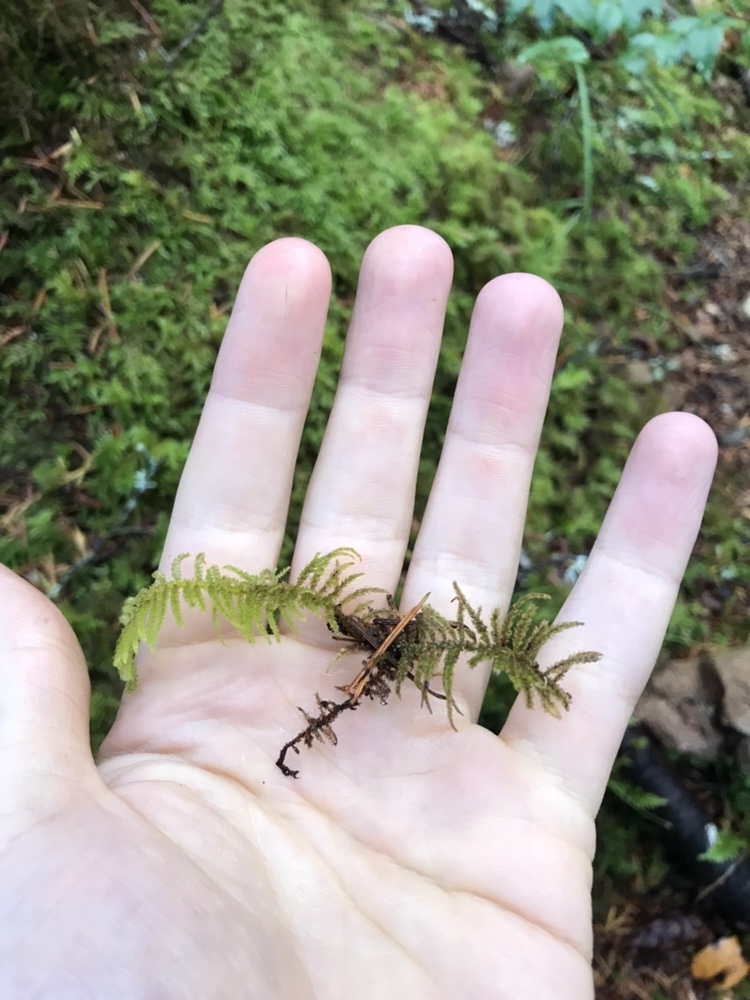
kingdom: Plantae
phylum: Bryophyta
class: Bryopsida
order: Hypnales
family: Brachytheciaceae
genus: Kindbergia
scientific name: Kindbergia oregana
